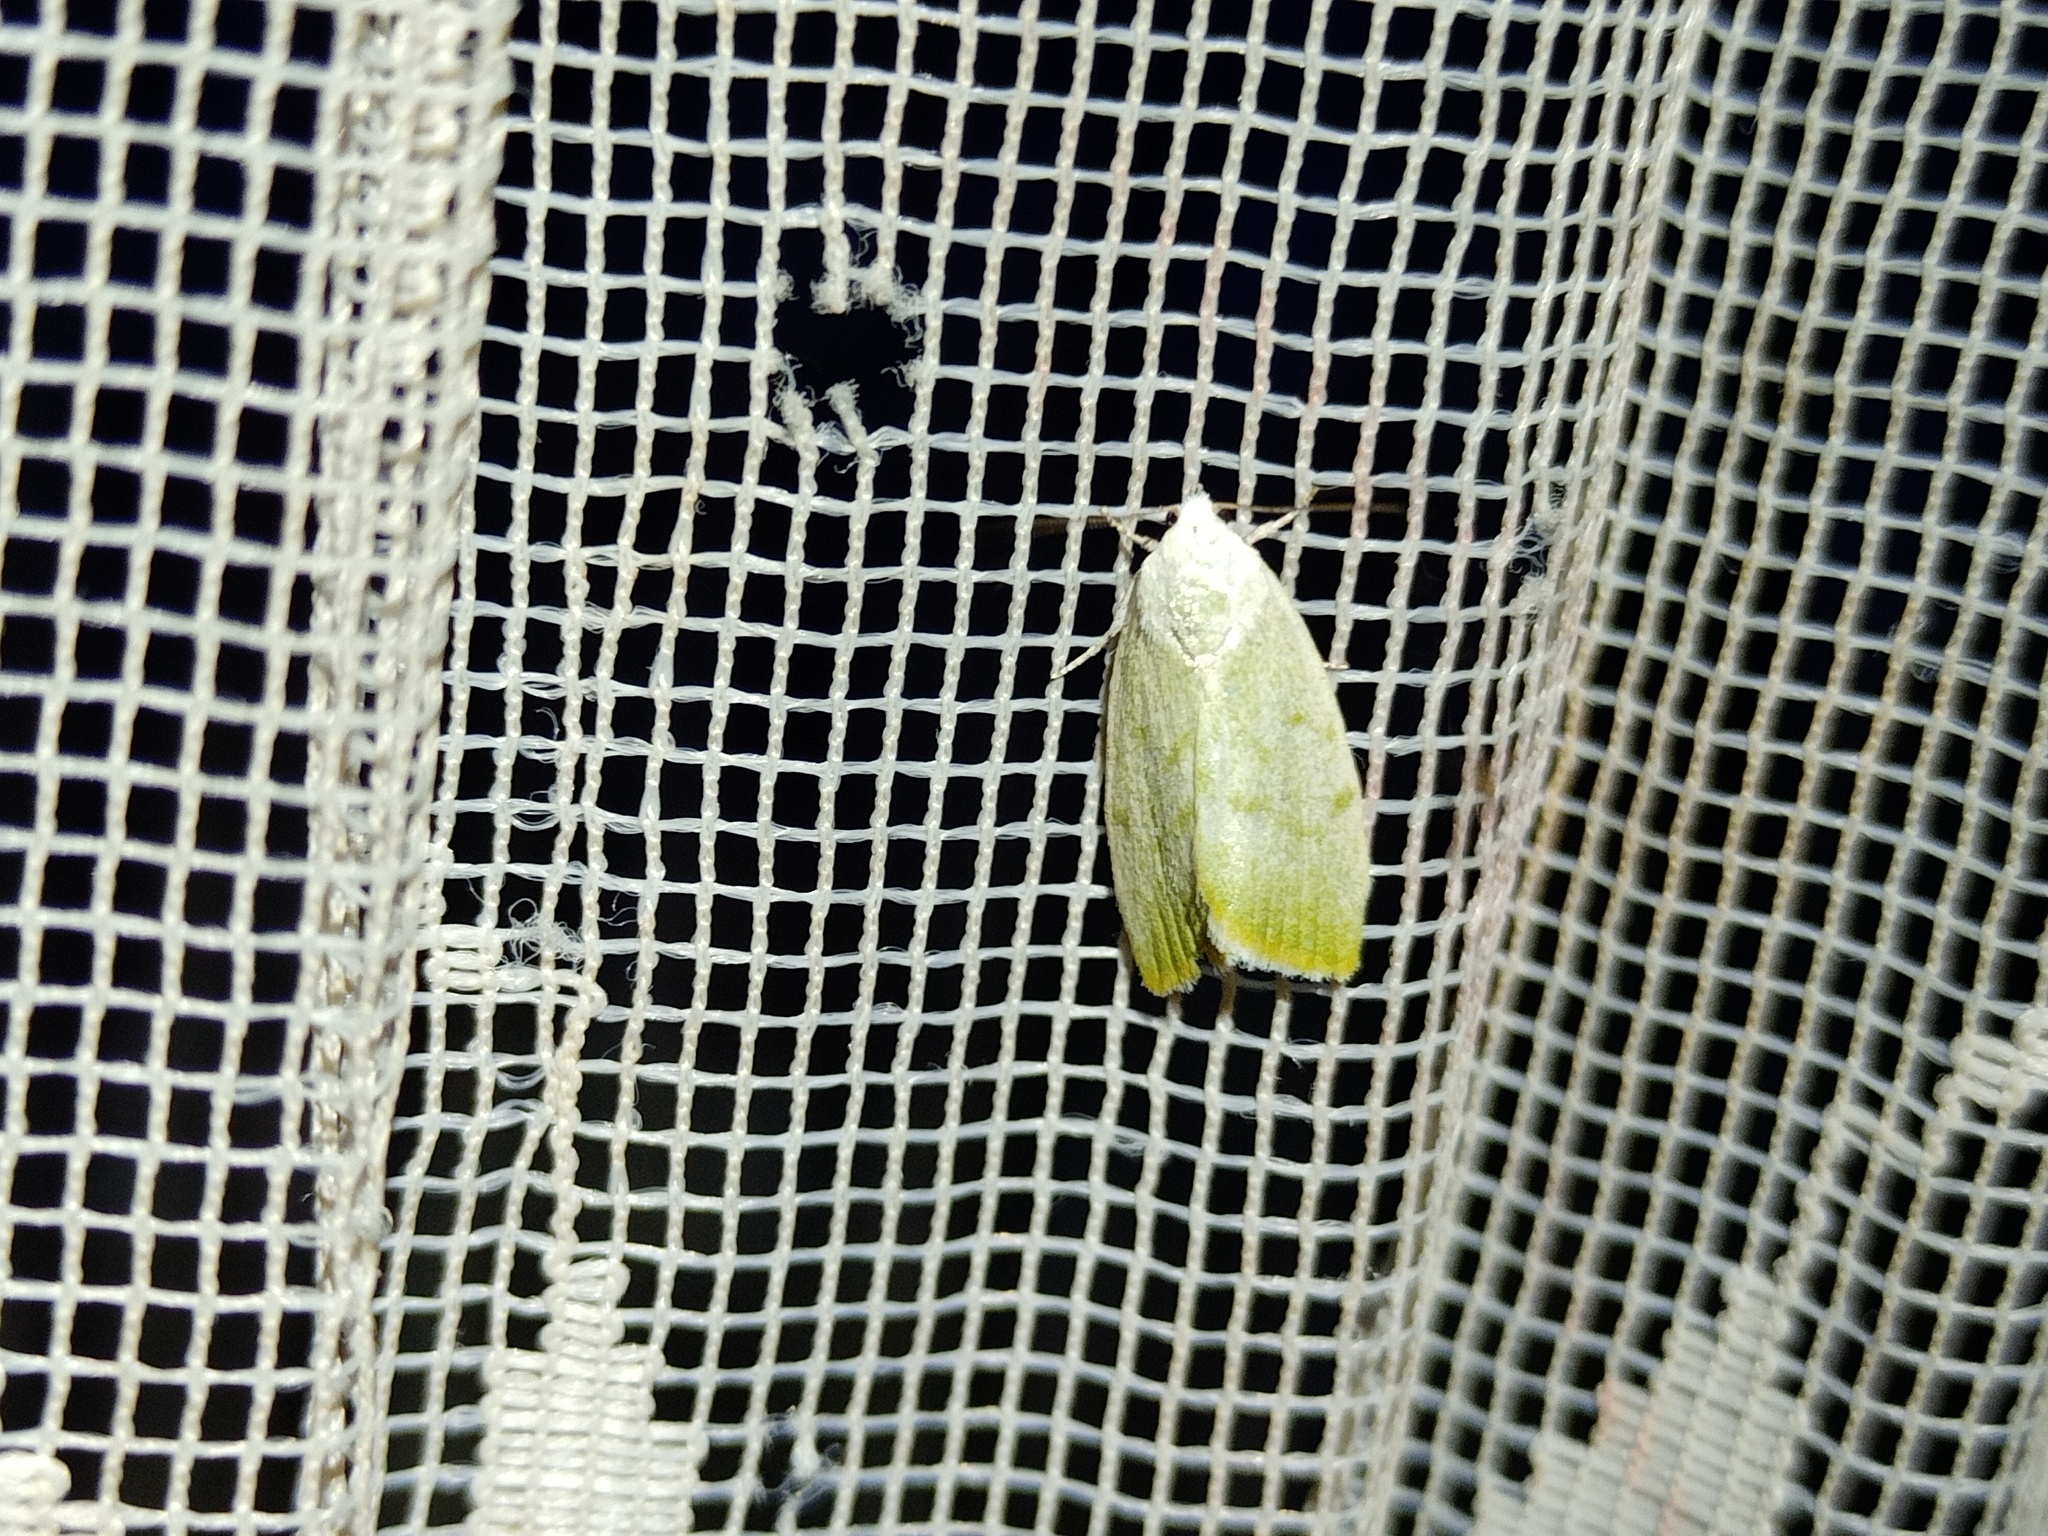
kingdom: Animalia
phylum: Arthropoda
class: Insecta
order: Lepidoptera
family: Nolidae
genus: Earias
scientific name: Earias vernana
